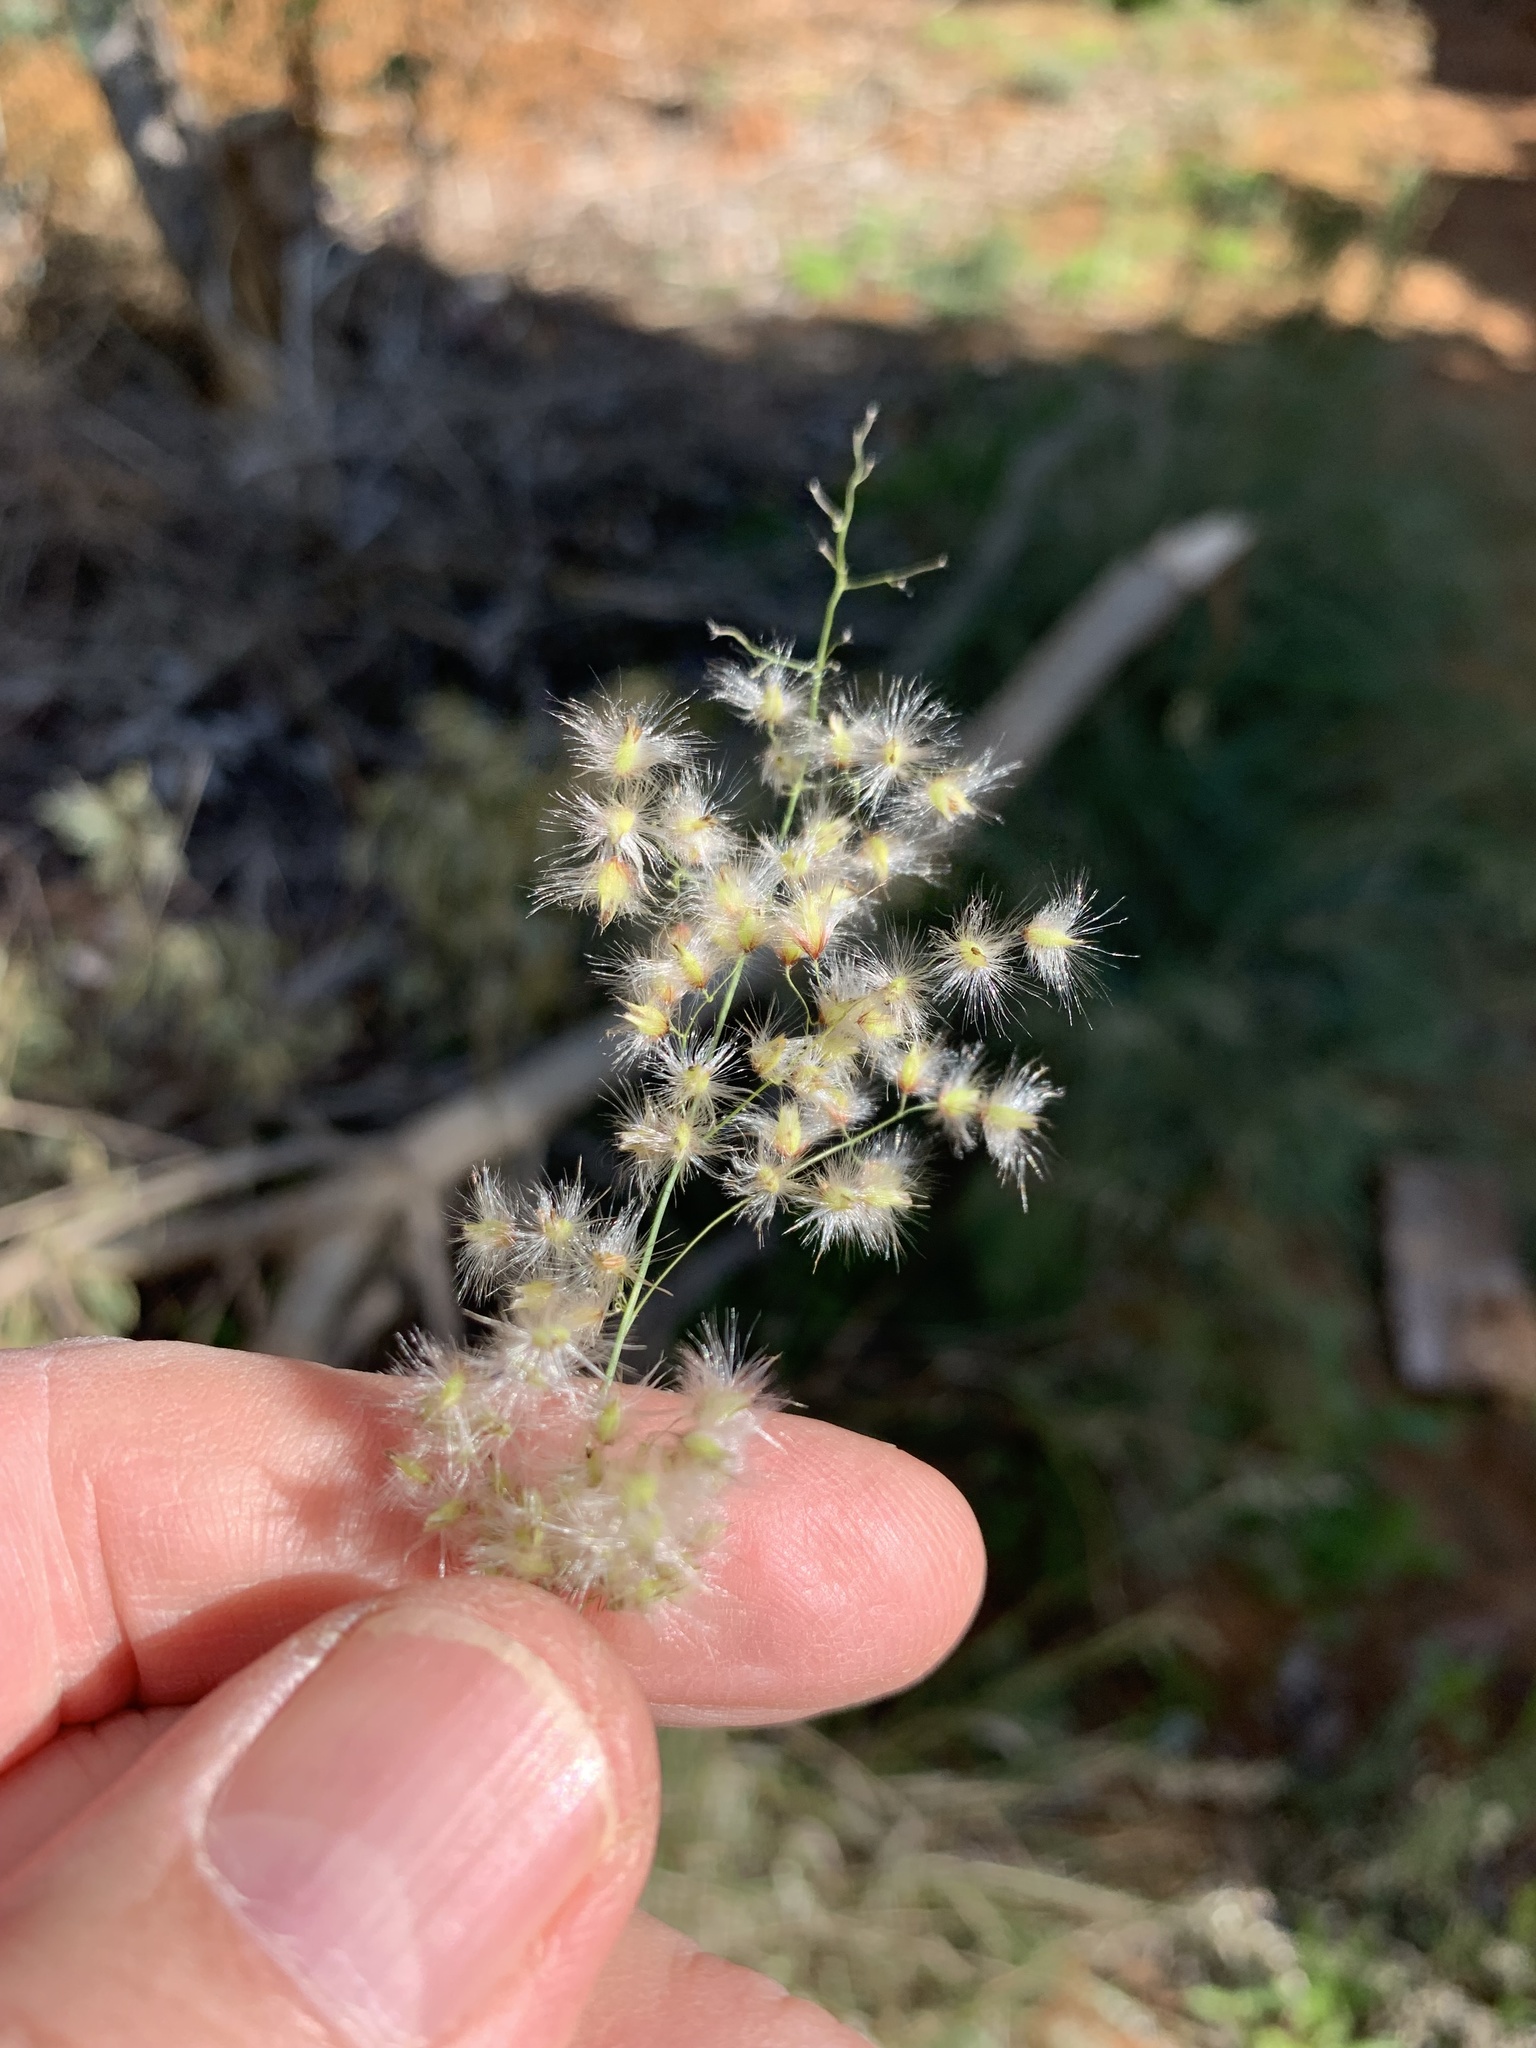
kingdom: Plantae
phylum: Tracheophyta
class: Liliopsida
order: Poales
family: Poaceae
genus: Melinis
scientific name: Melinis repens
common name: Rose natal grass
